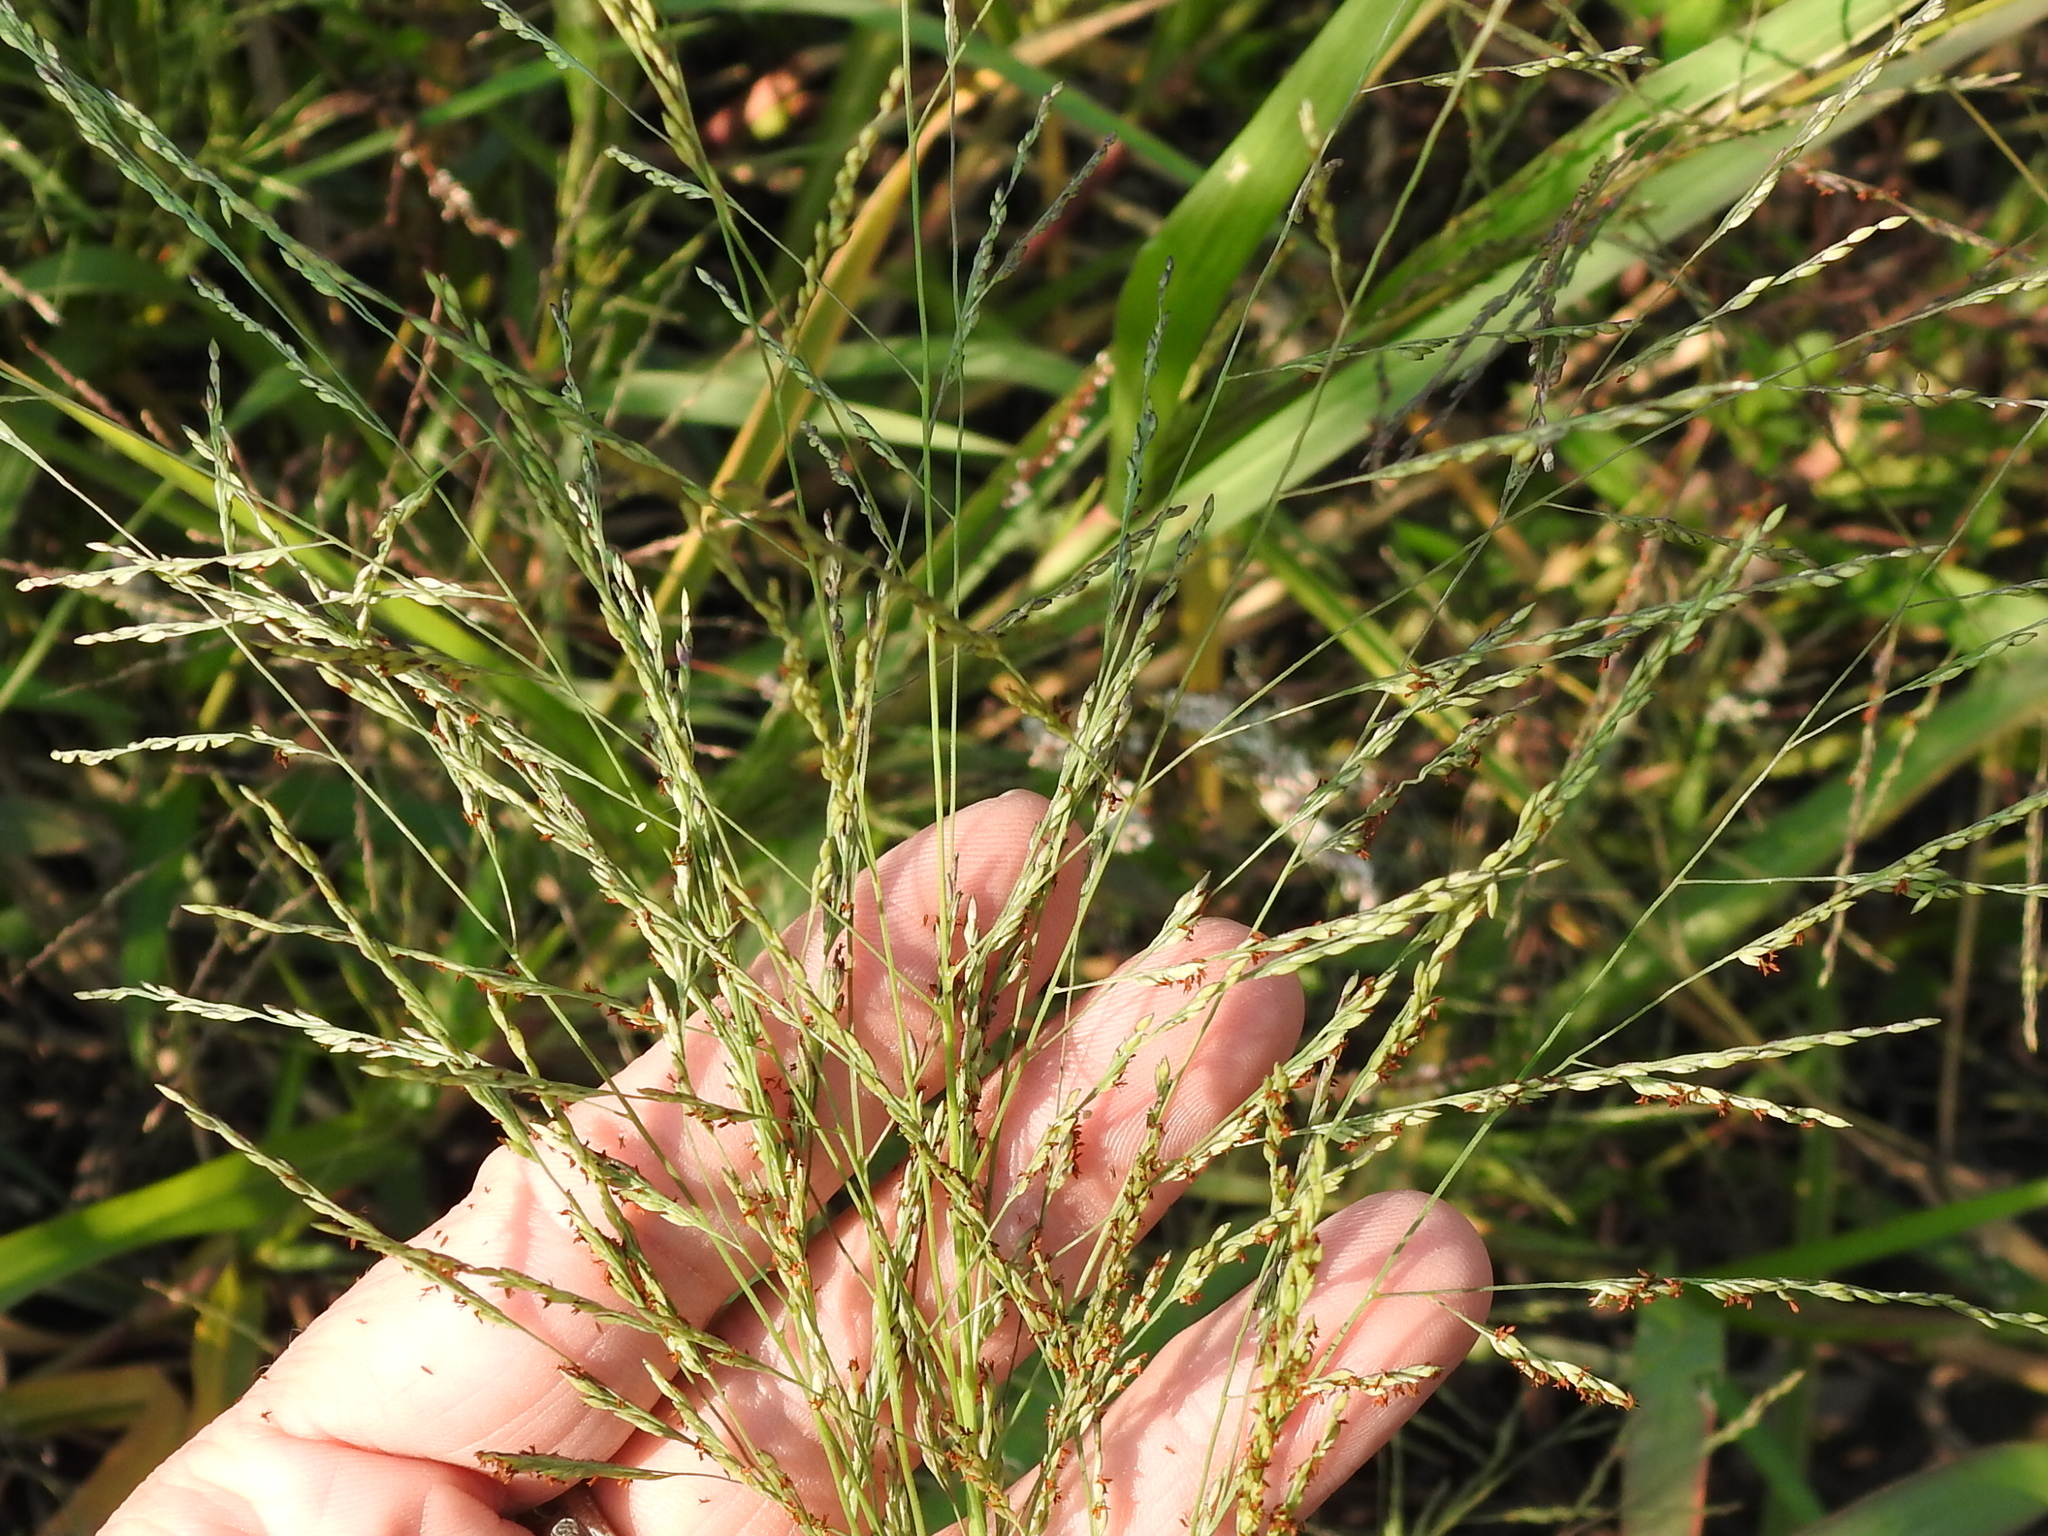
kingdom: Plantae
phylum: Tracheophyta
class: Liliopsida
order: Poales
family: Poaceae
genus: Panicum
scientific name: Panicum dichotomiflorum
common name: Autumn millet
